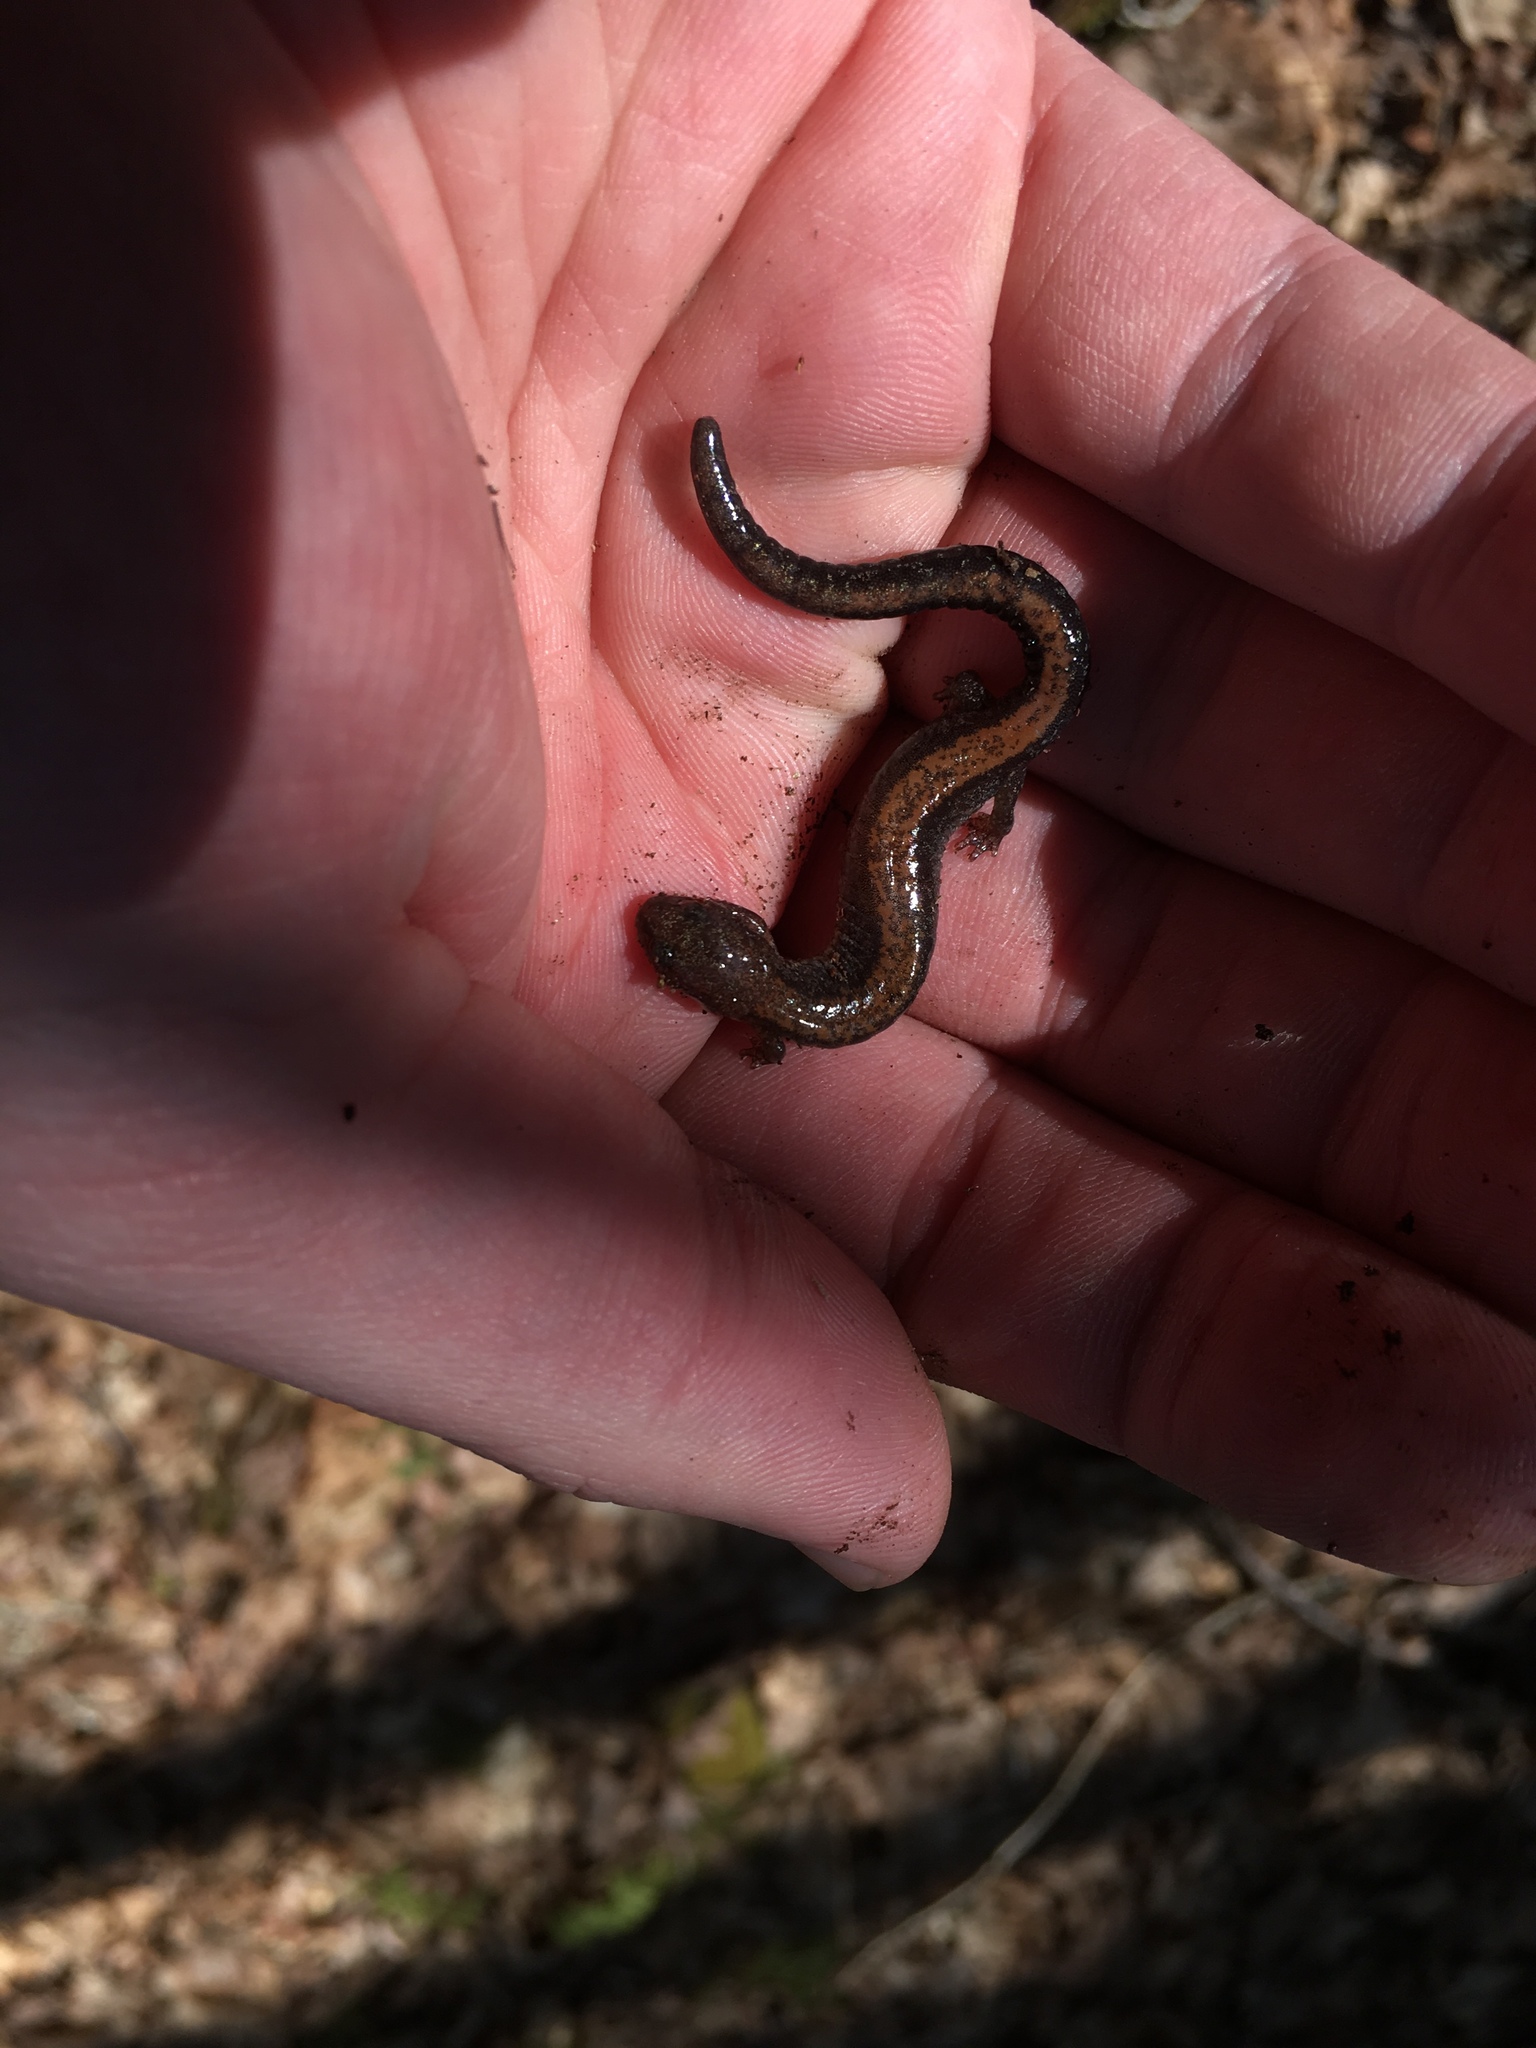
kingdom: Animalia
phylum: Chordata
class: Amphibia
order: Caudata
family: Plethodontidae
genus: Plethodon
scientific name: Plethodon cinereus
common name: Redback salamander
